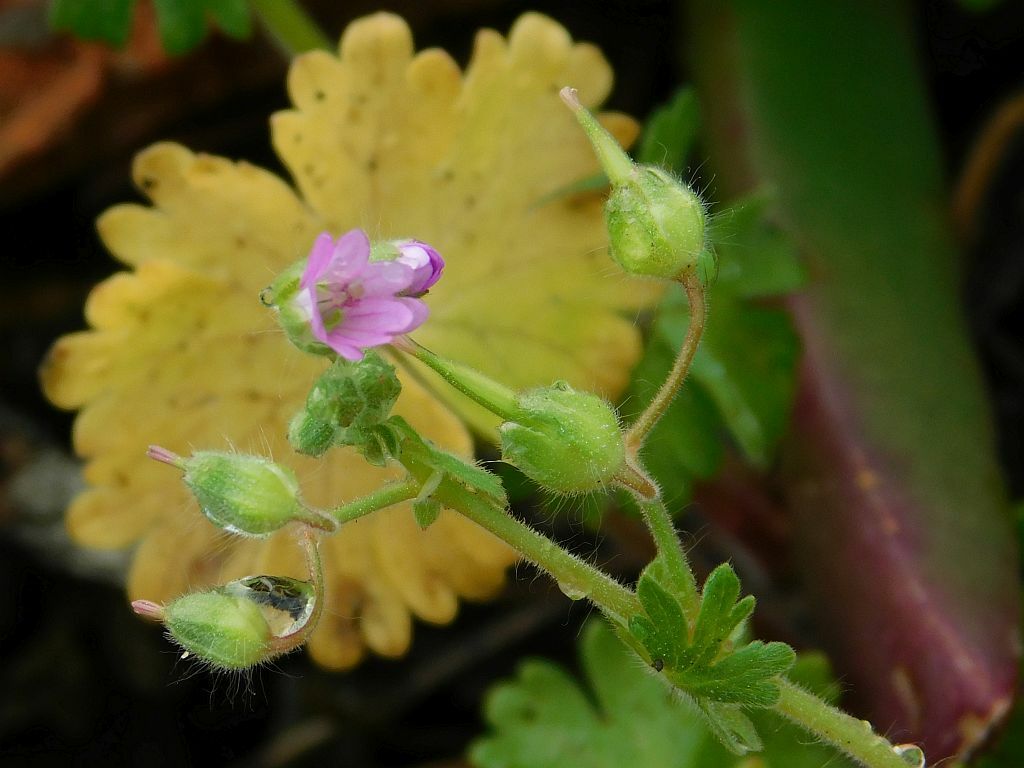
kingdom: Plantae
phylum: Tracheophyta
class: Magnoliopsida
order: Geraniales
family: Geraniaceae
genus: Geranium
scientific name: Geranium molle
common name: Dove's-foot crane's-bill
